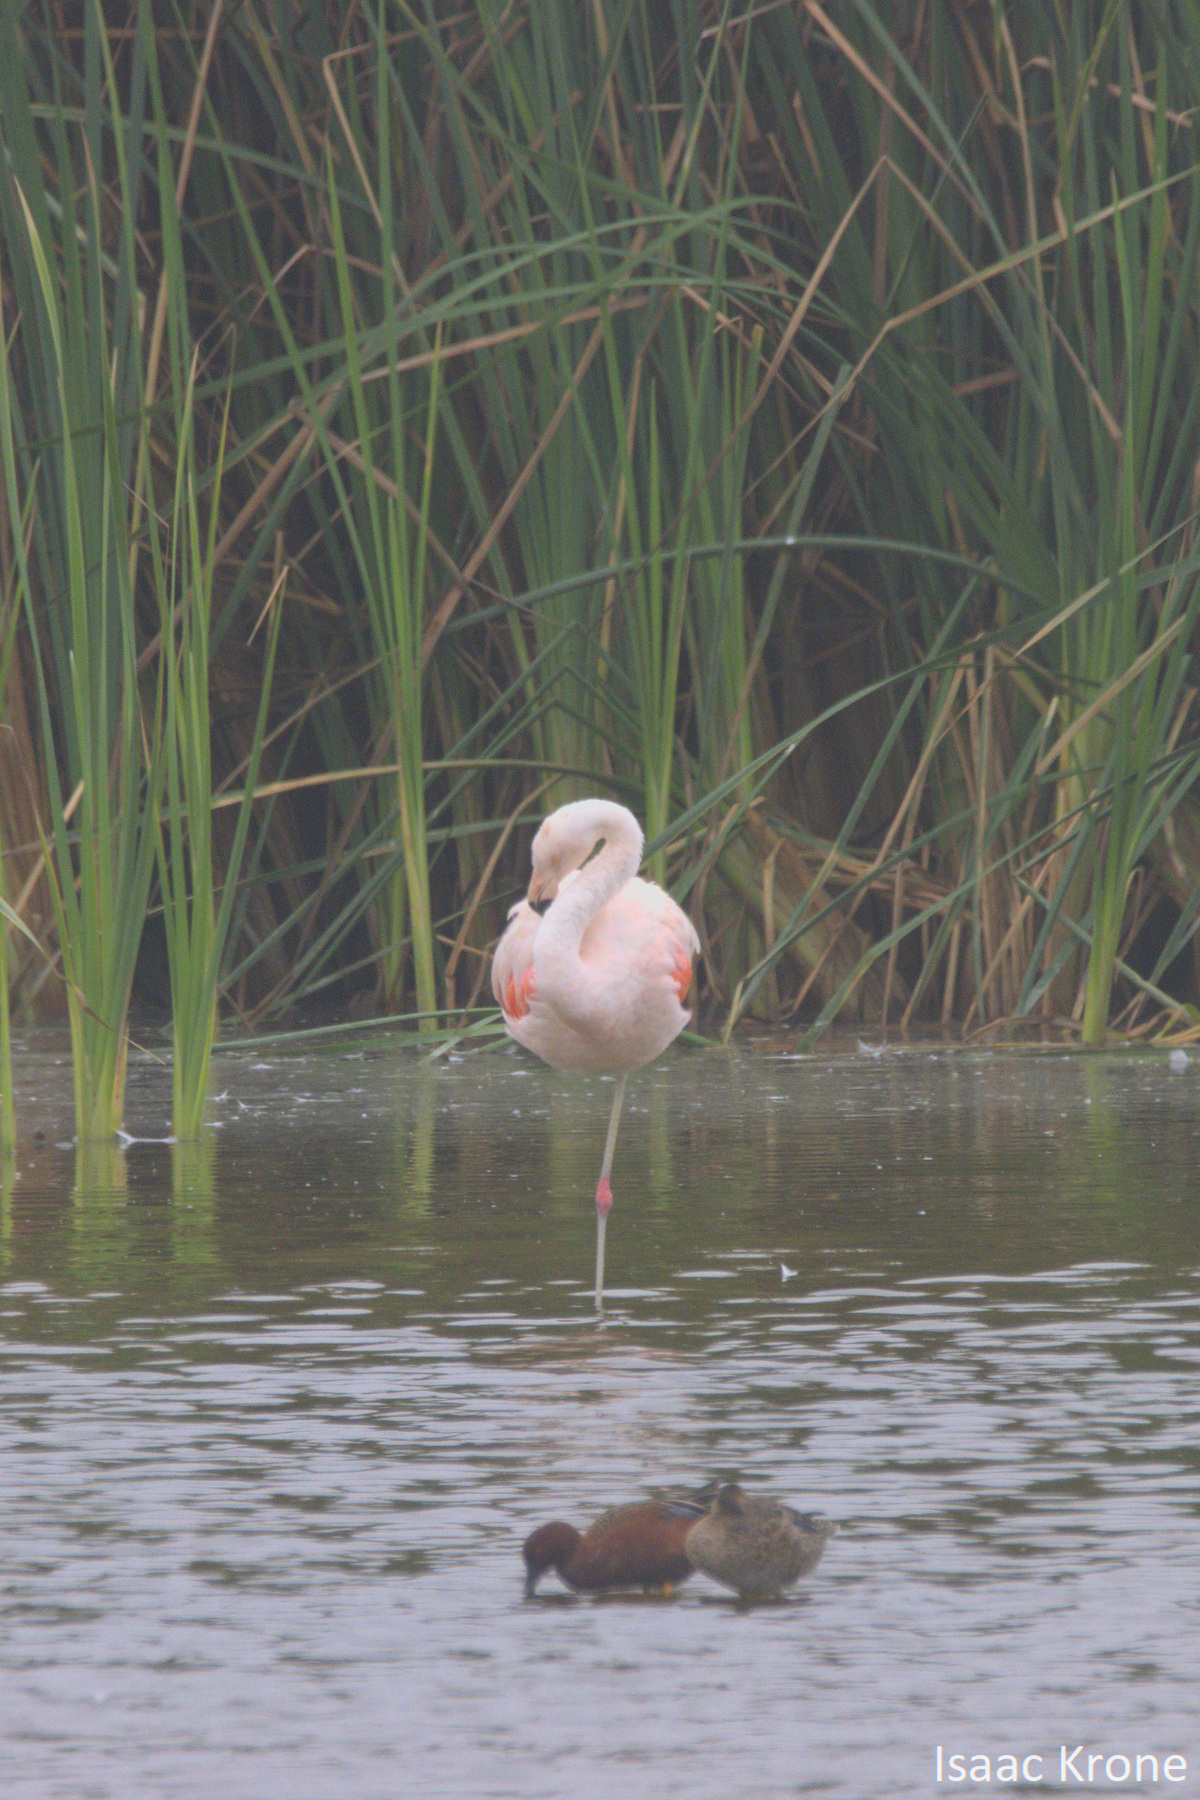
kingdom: Animalia
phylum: Chordata
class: Aves
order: Phoenicopteriformes
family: Phoenicopteridae
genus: Phoenicopterus
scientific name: Phoenicopterus chilensis
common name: Chilean flamingo
